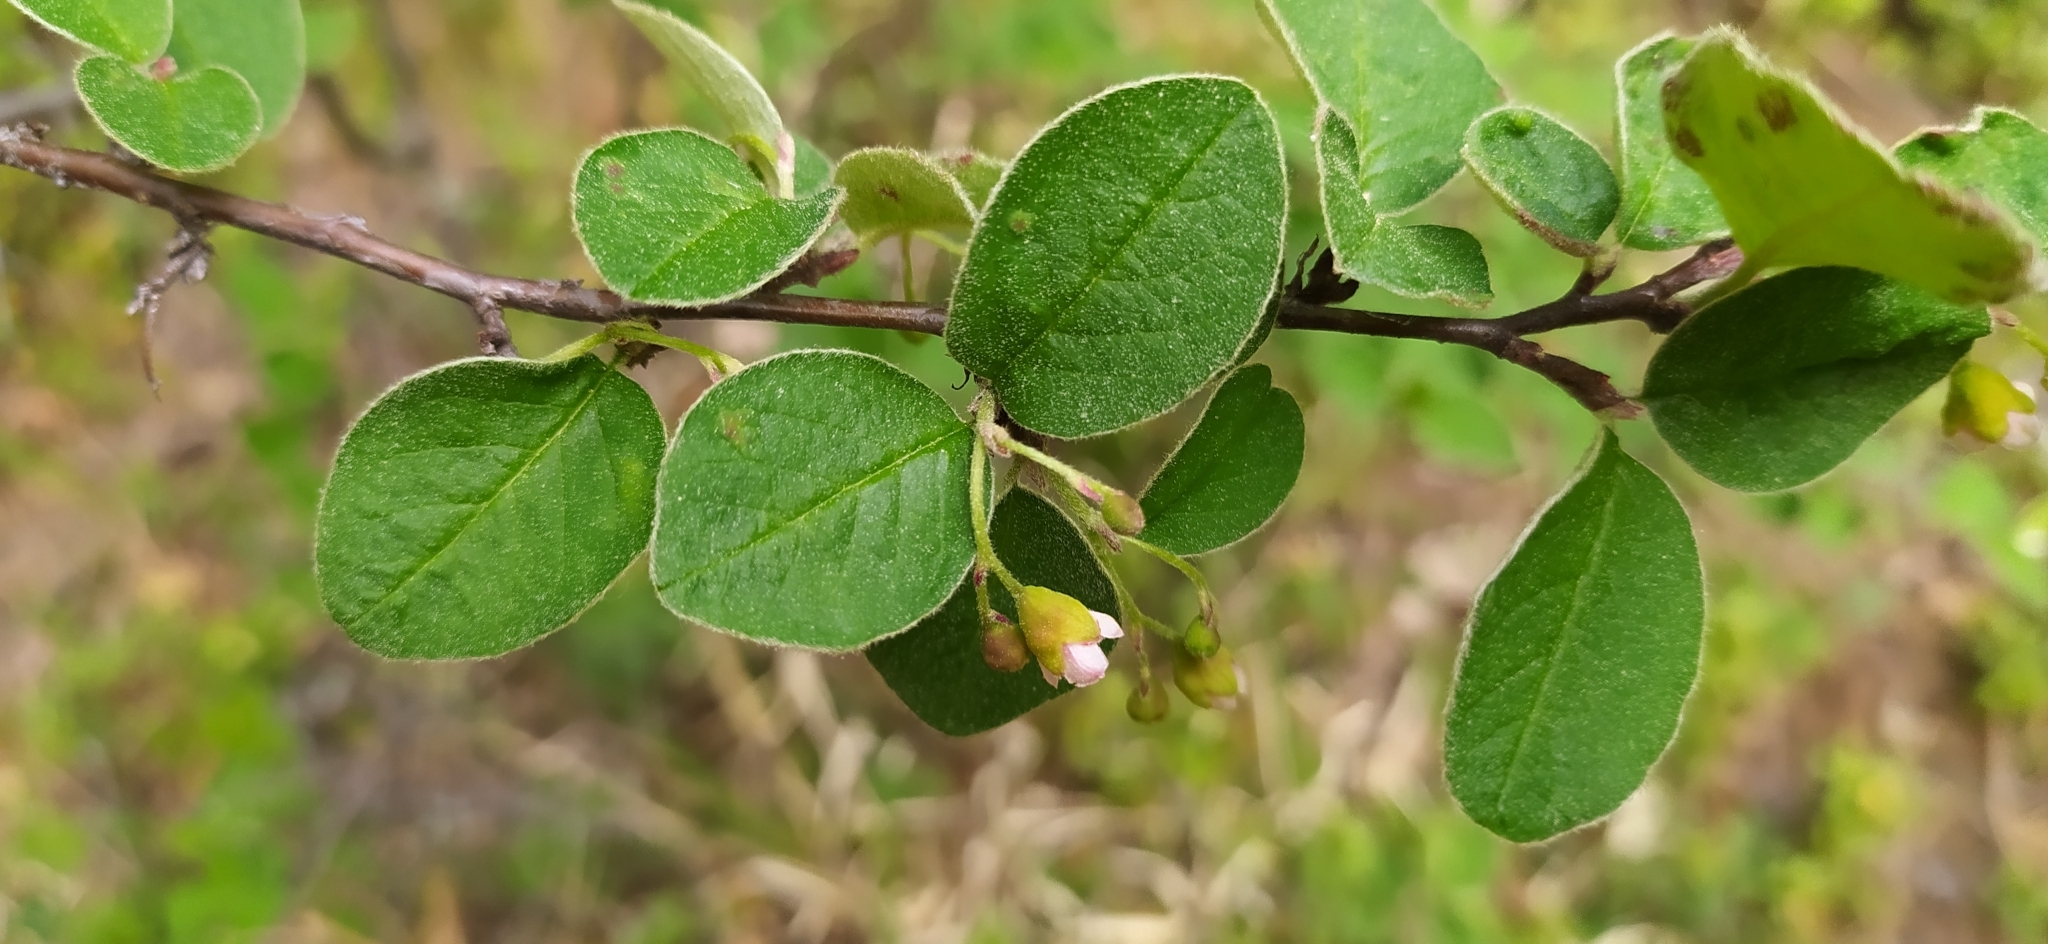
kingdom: Plantae
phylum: Tracheophyta
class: Magnoliopsida
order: Rosales
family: Rosaceae
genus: Cotoneaster
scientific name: Cotoneaster melanocarpus
